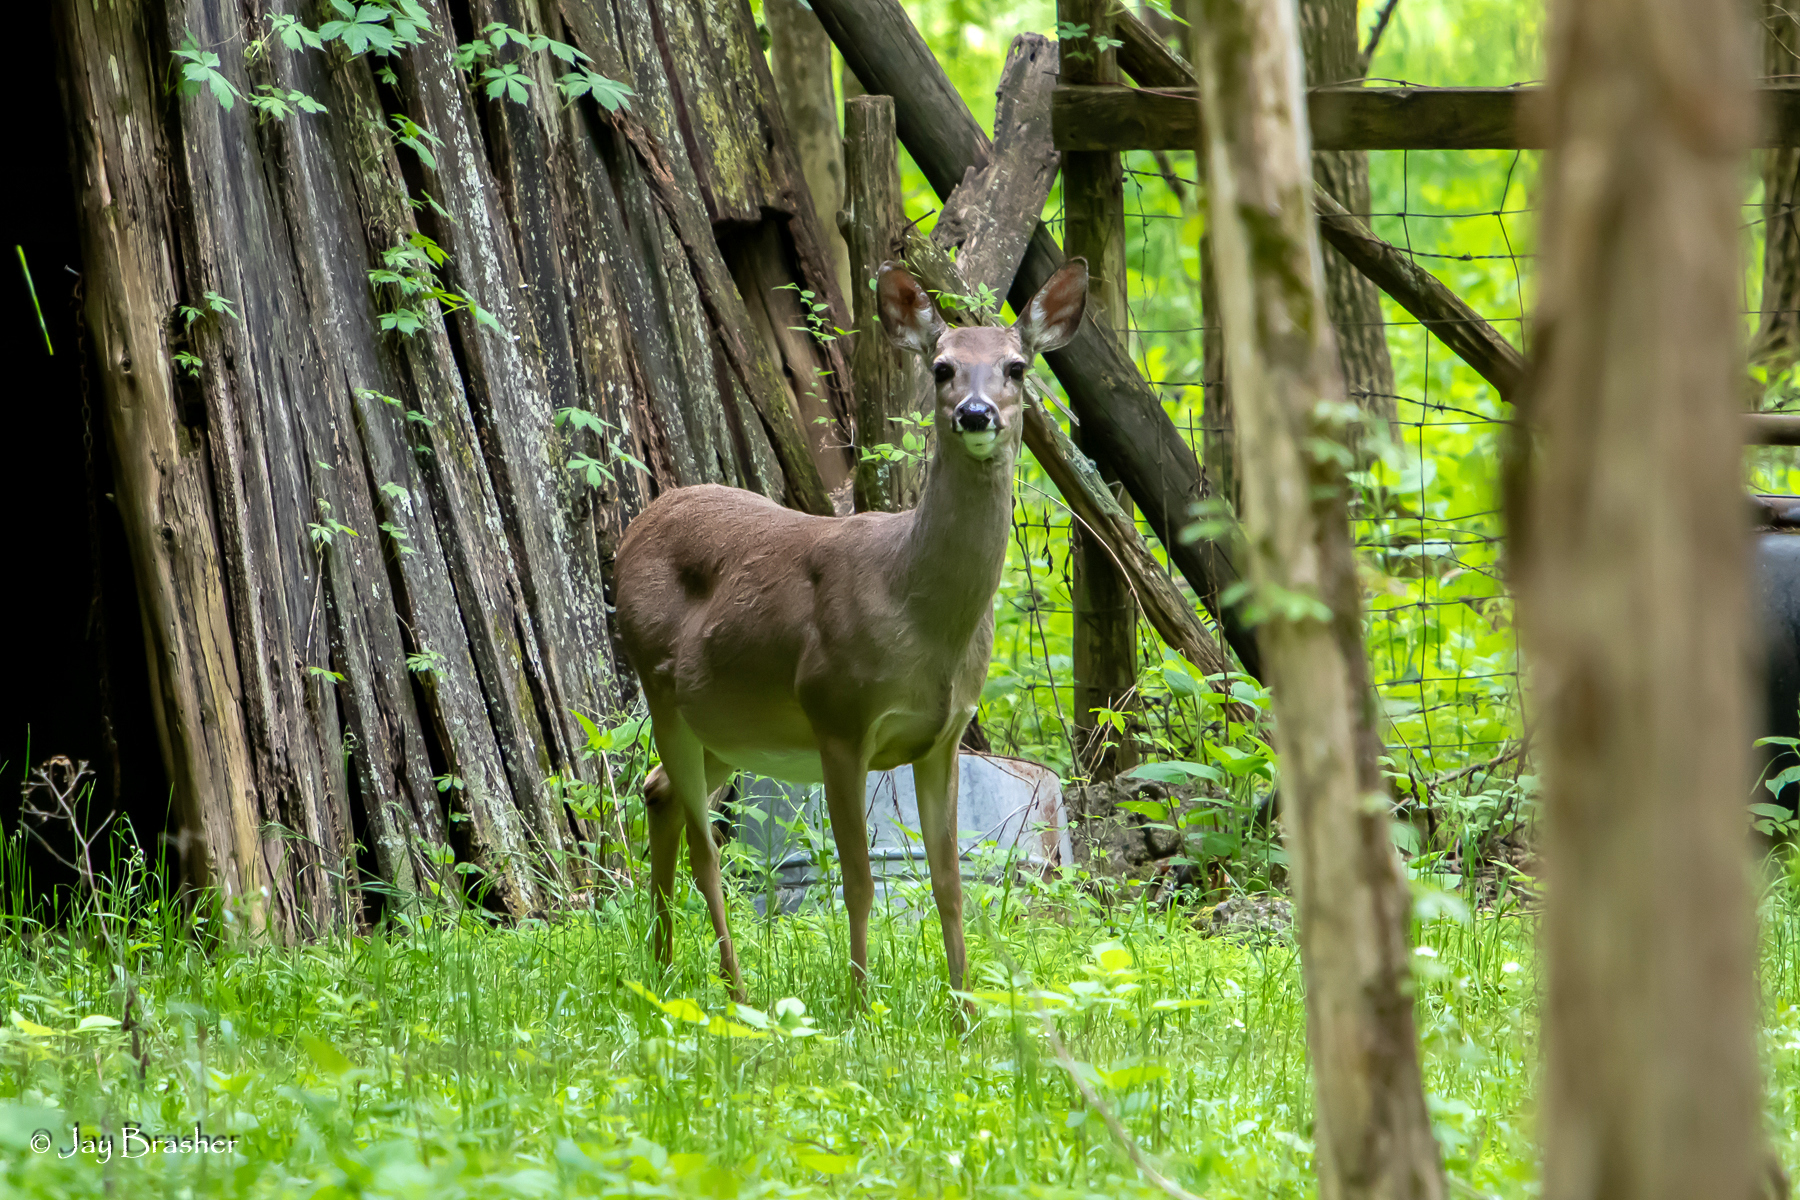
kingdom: Animalia
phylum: Chordata
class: Mammalia
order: Artiodactyla
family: Cervidae
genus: Odocoileus
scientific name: Odocoileus virginianus
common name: White-tailed deer
